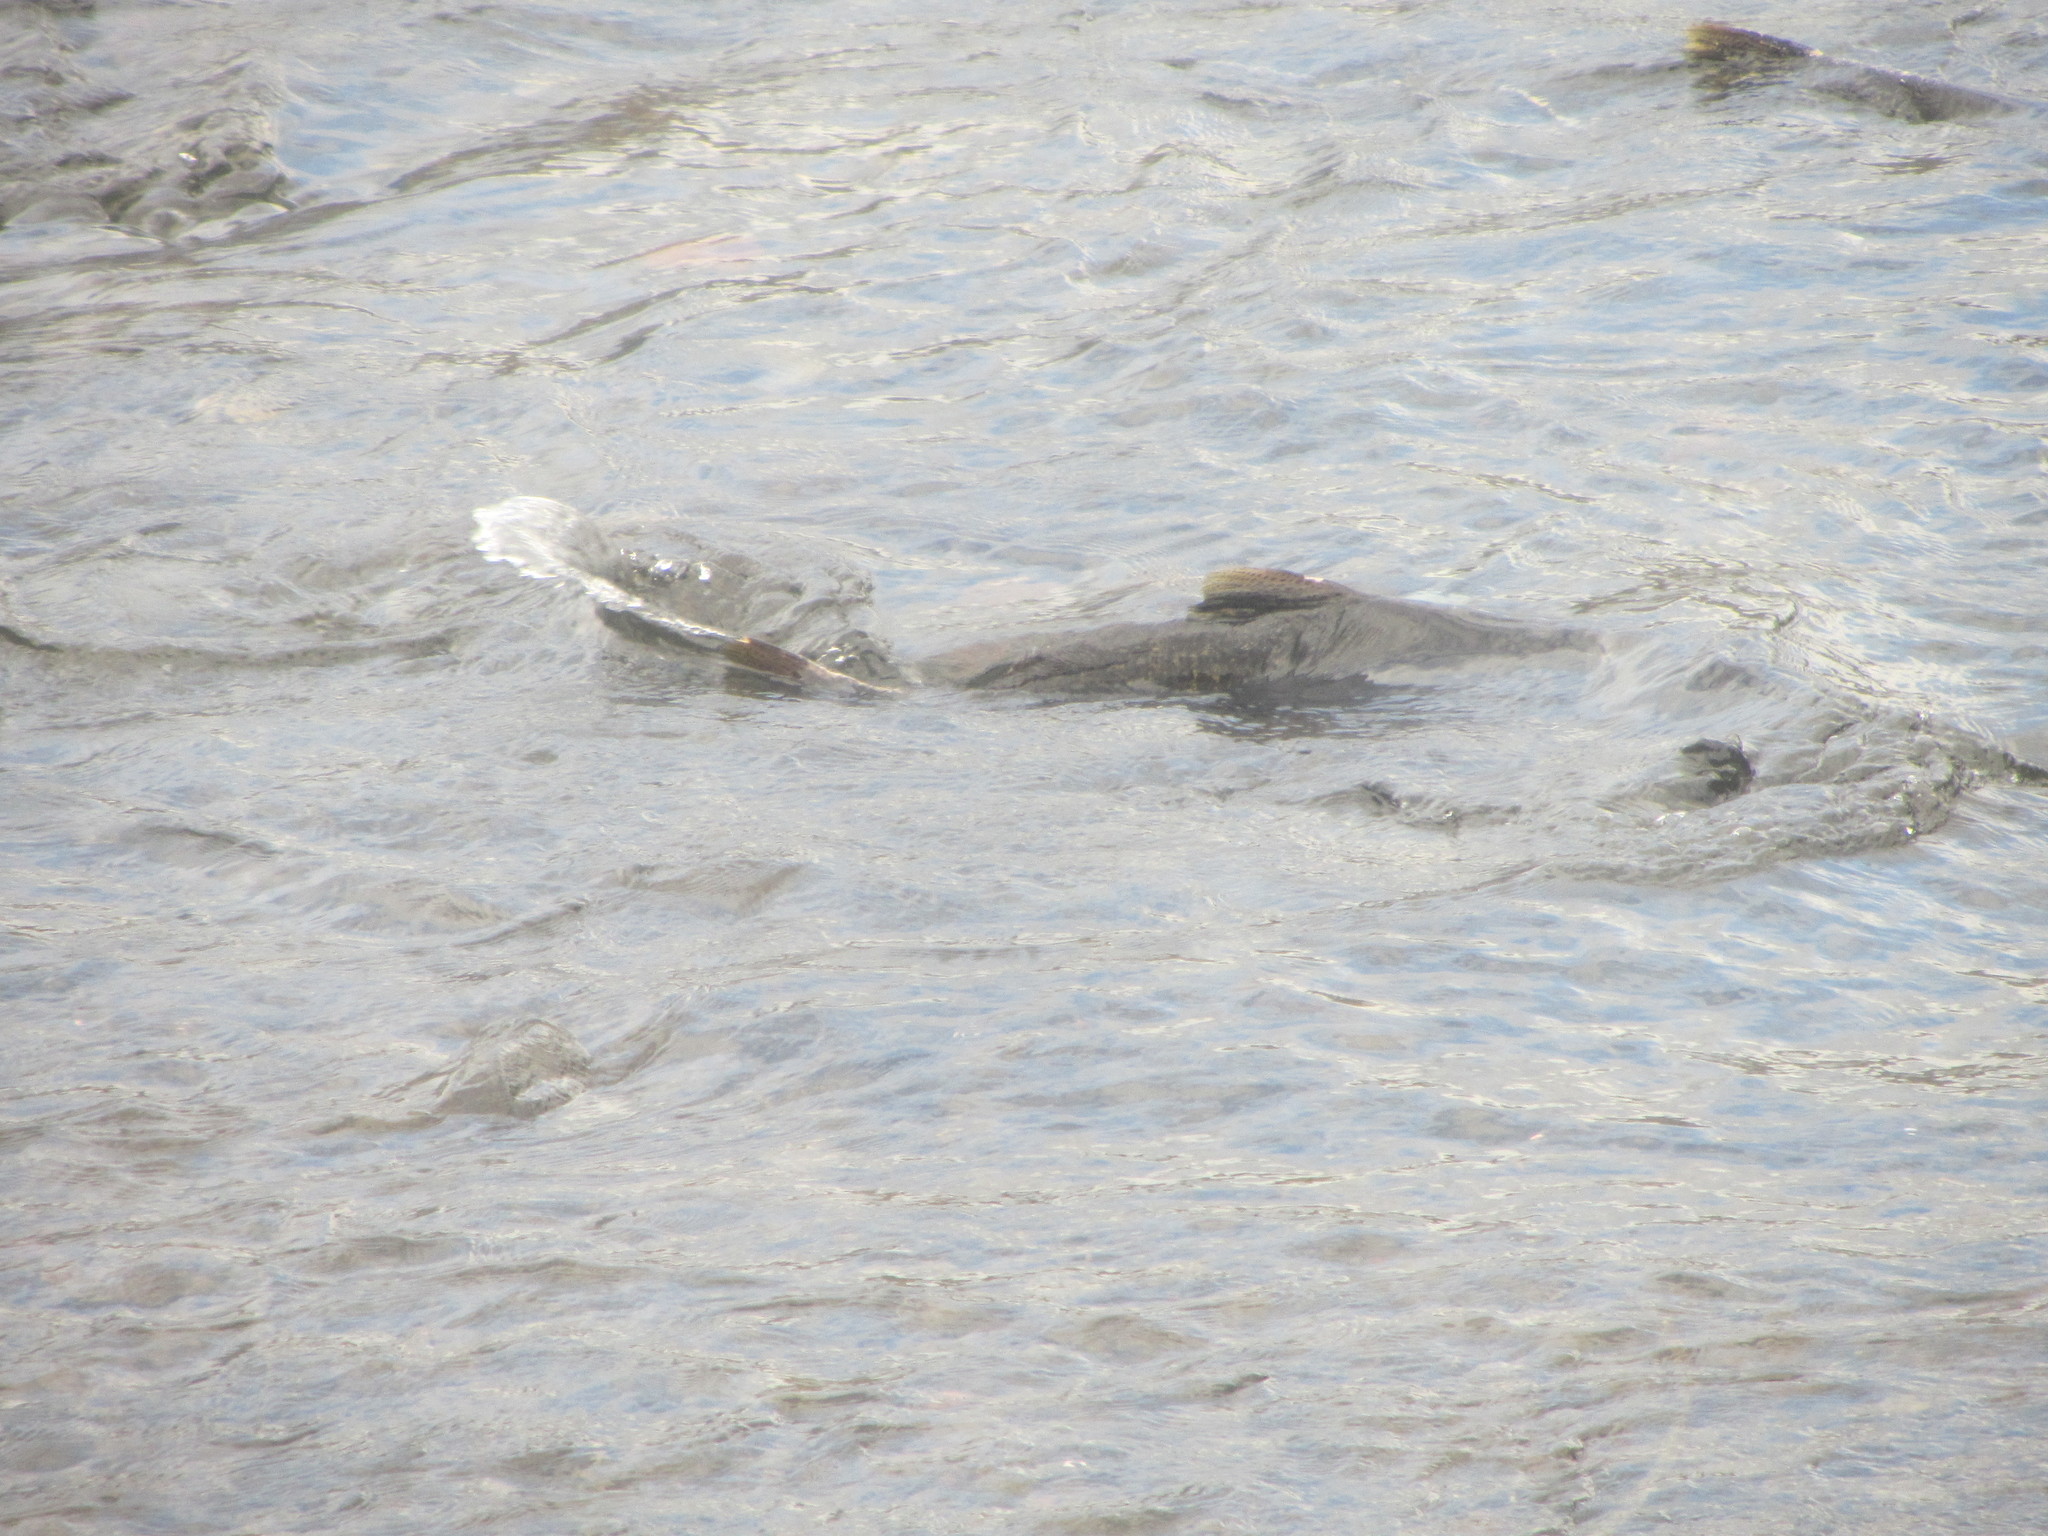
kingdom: Animalia
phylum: Chordata
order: Salmoniformes
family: Salmonidae
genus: Oncorhynchus
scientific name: Oncorhynchus tshawytscha
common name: Chinook salmon
